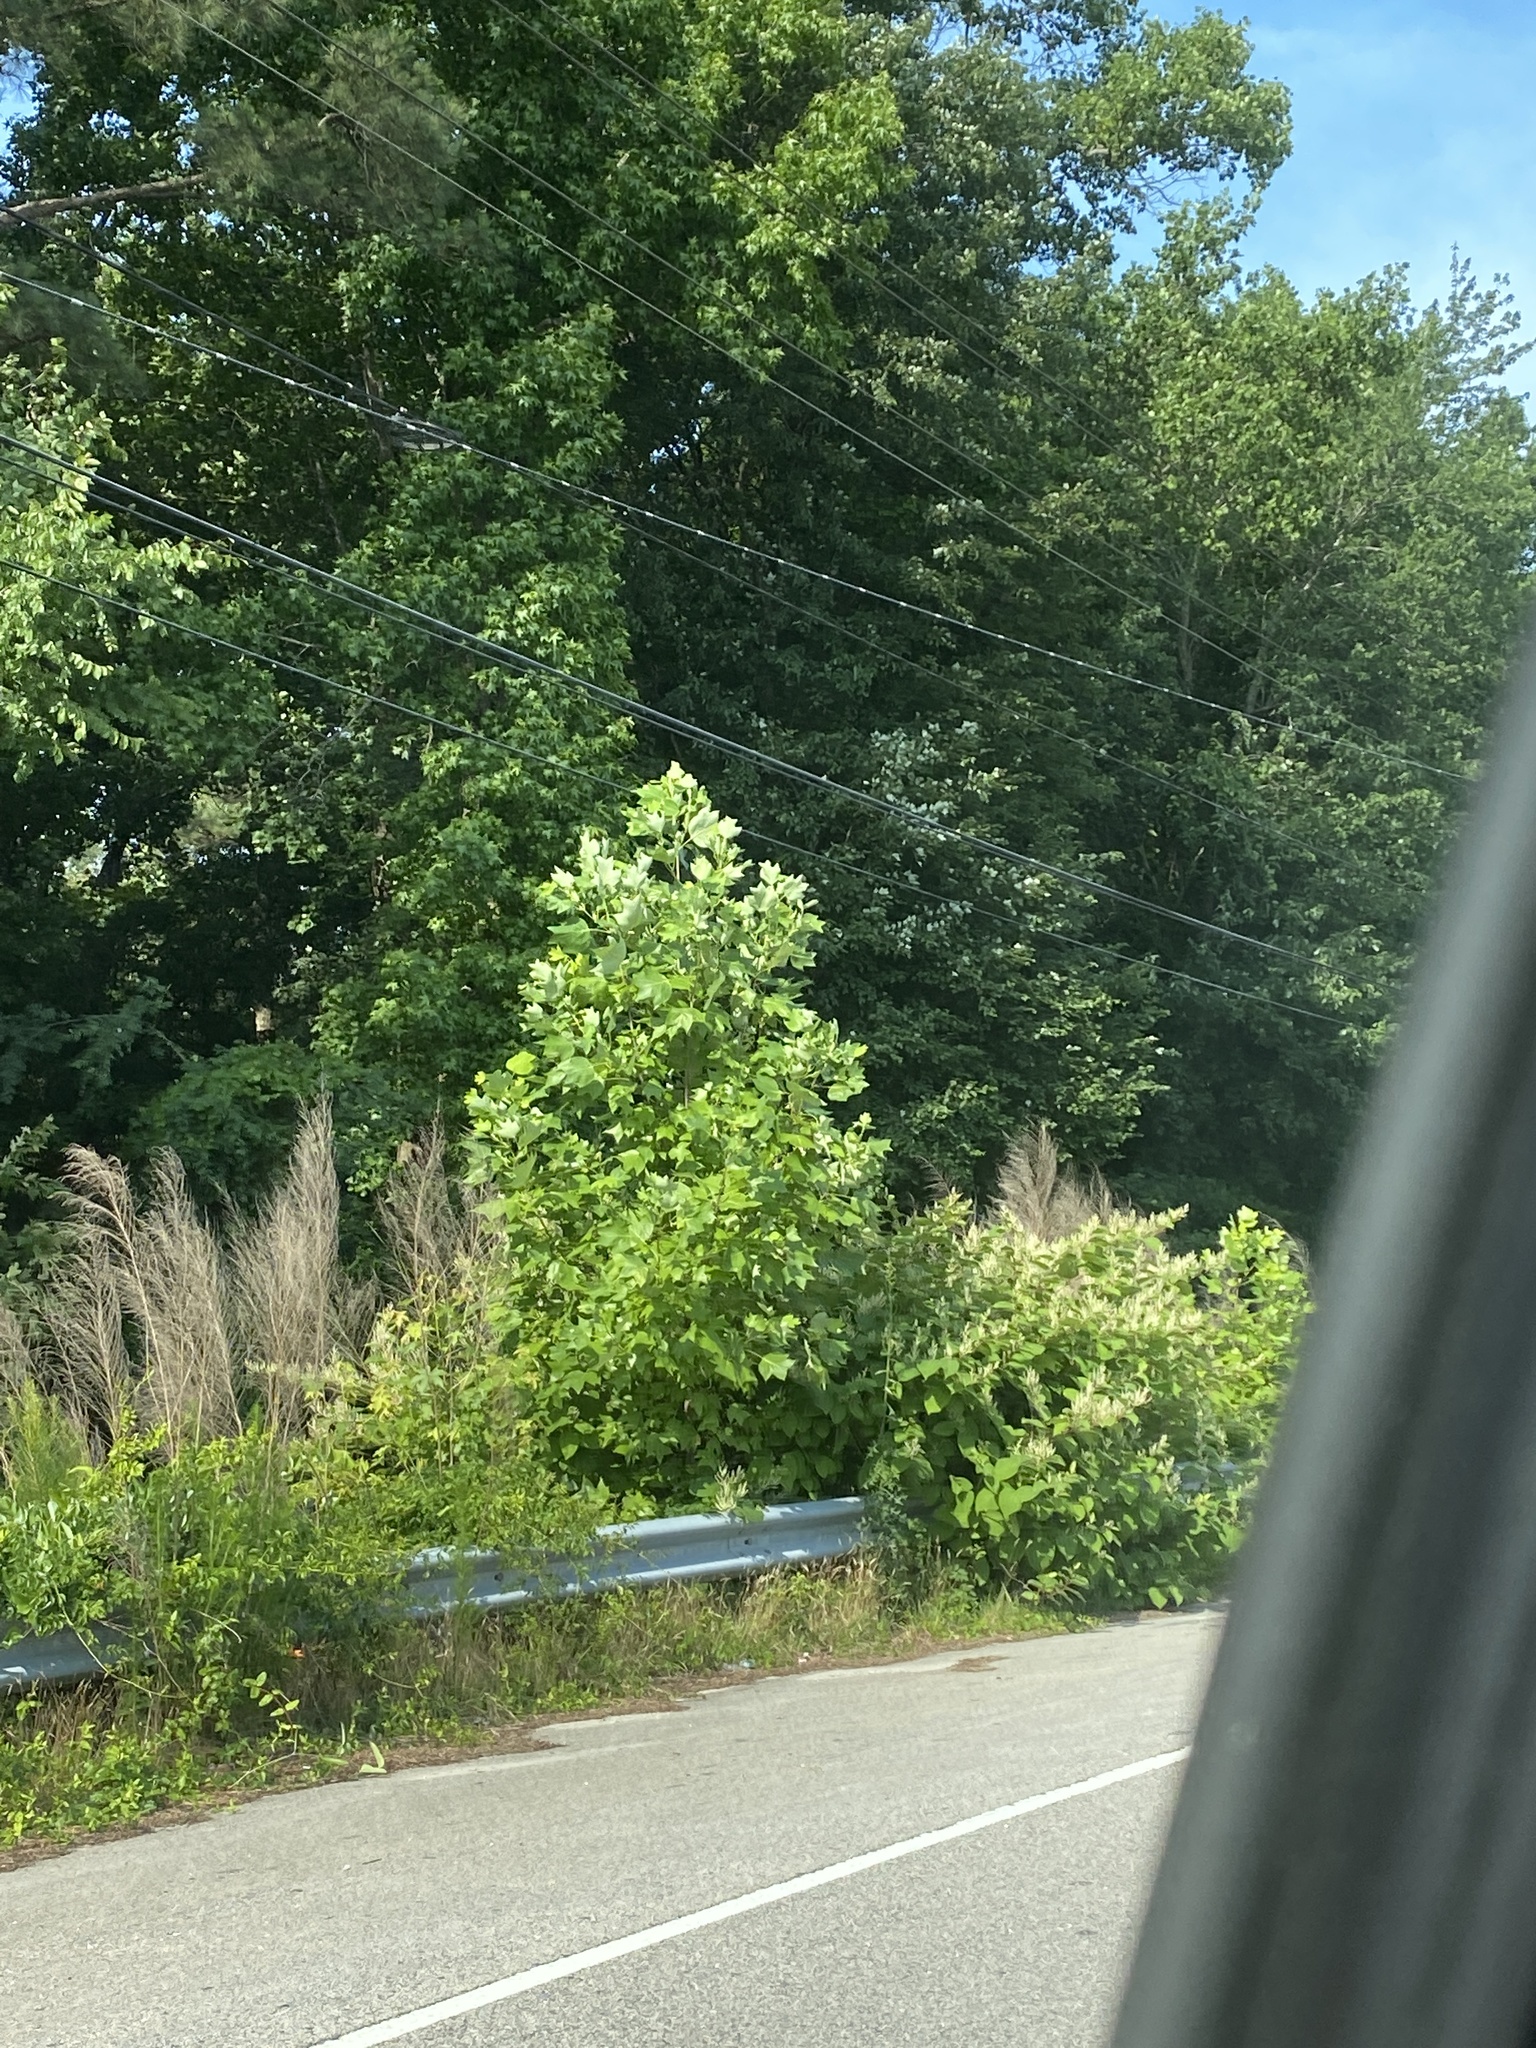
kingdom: Plantae
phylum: Tracheophyta
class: Magnoliopsida
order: Caryophyllales
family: Polygonaceae
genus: Reynoutria
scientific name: Reynoutria japonica
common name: Japanese knotweed
